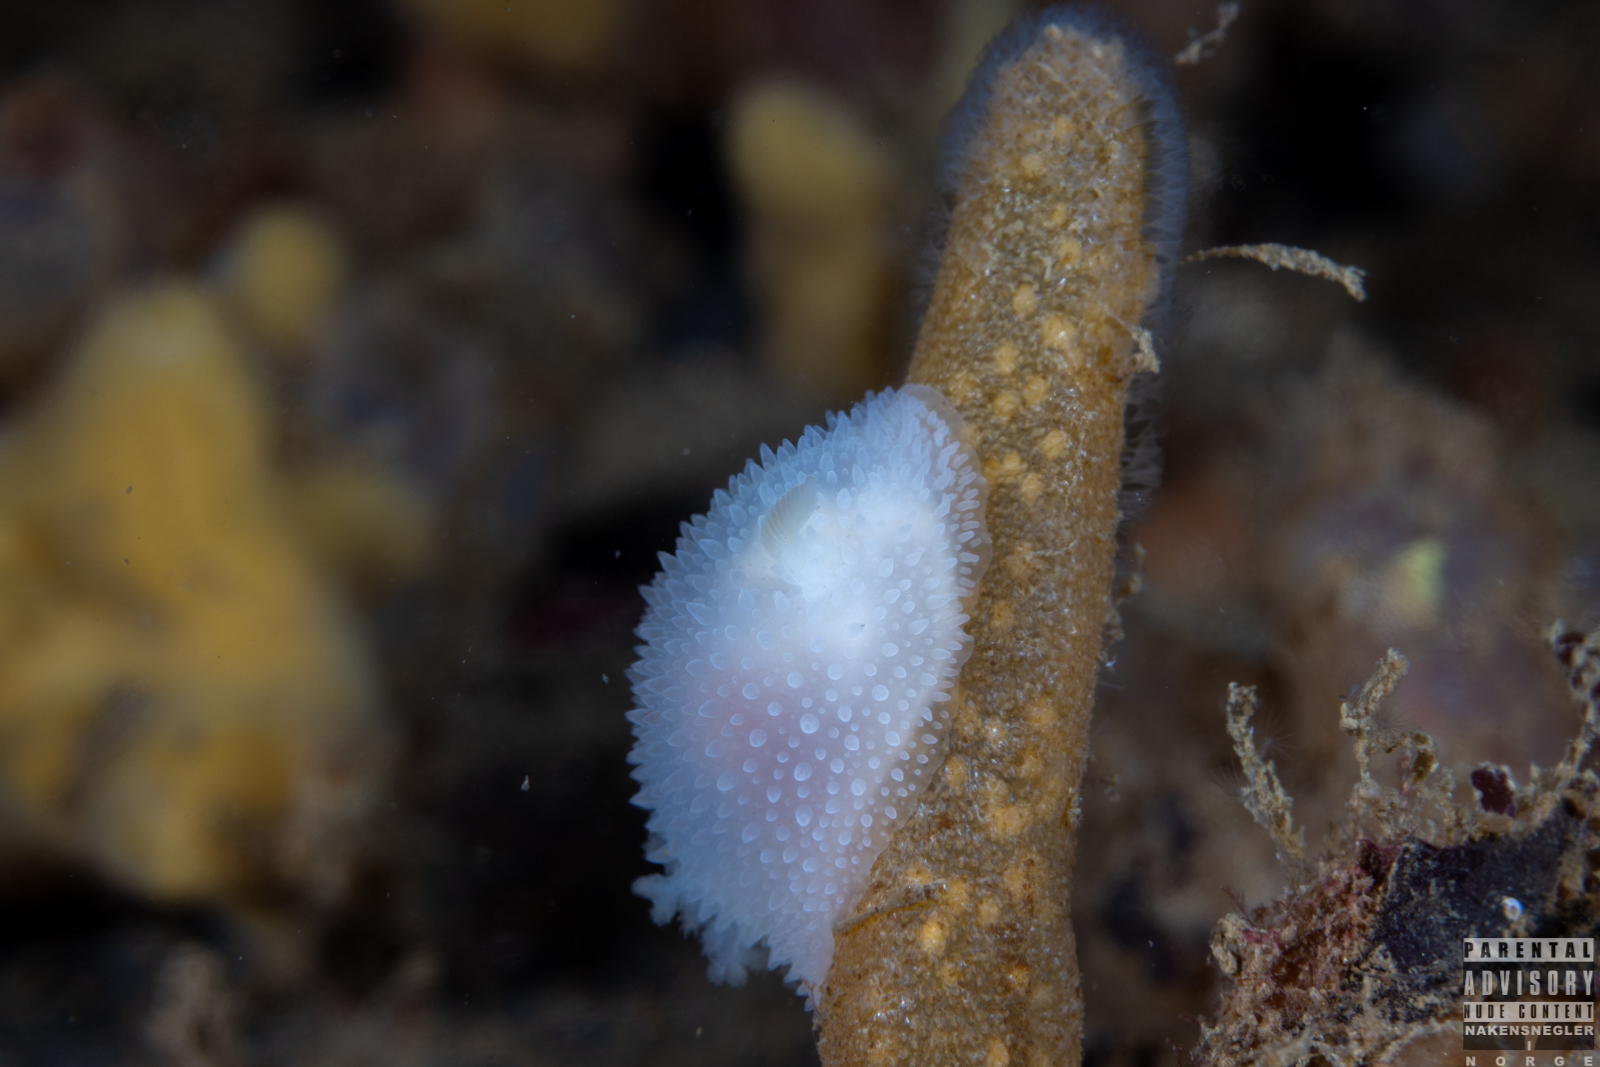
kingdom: Animalia
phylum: Mollusca
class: Gastropoda
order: Nudibranchia
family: Onchidorididae
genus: Acanthodoris
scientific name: Acanthodoris pilosa
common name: Hairy spiny doris
